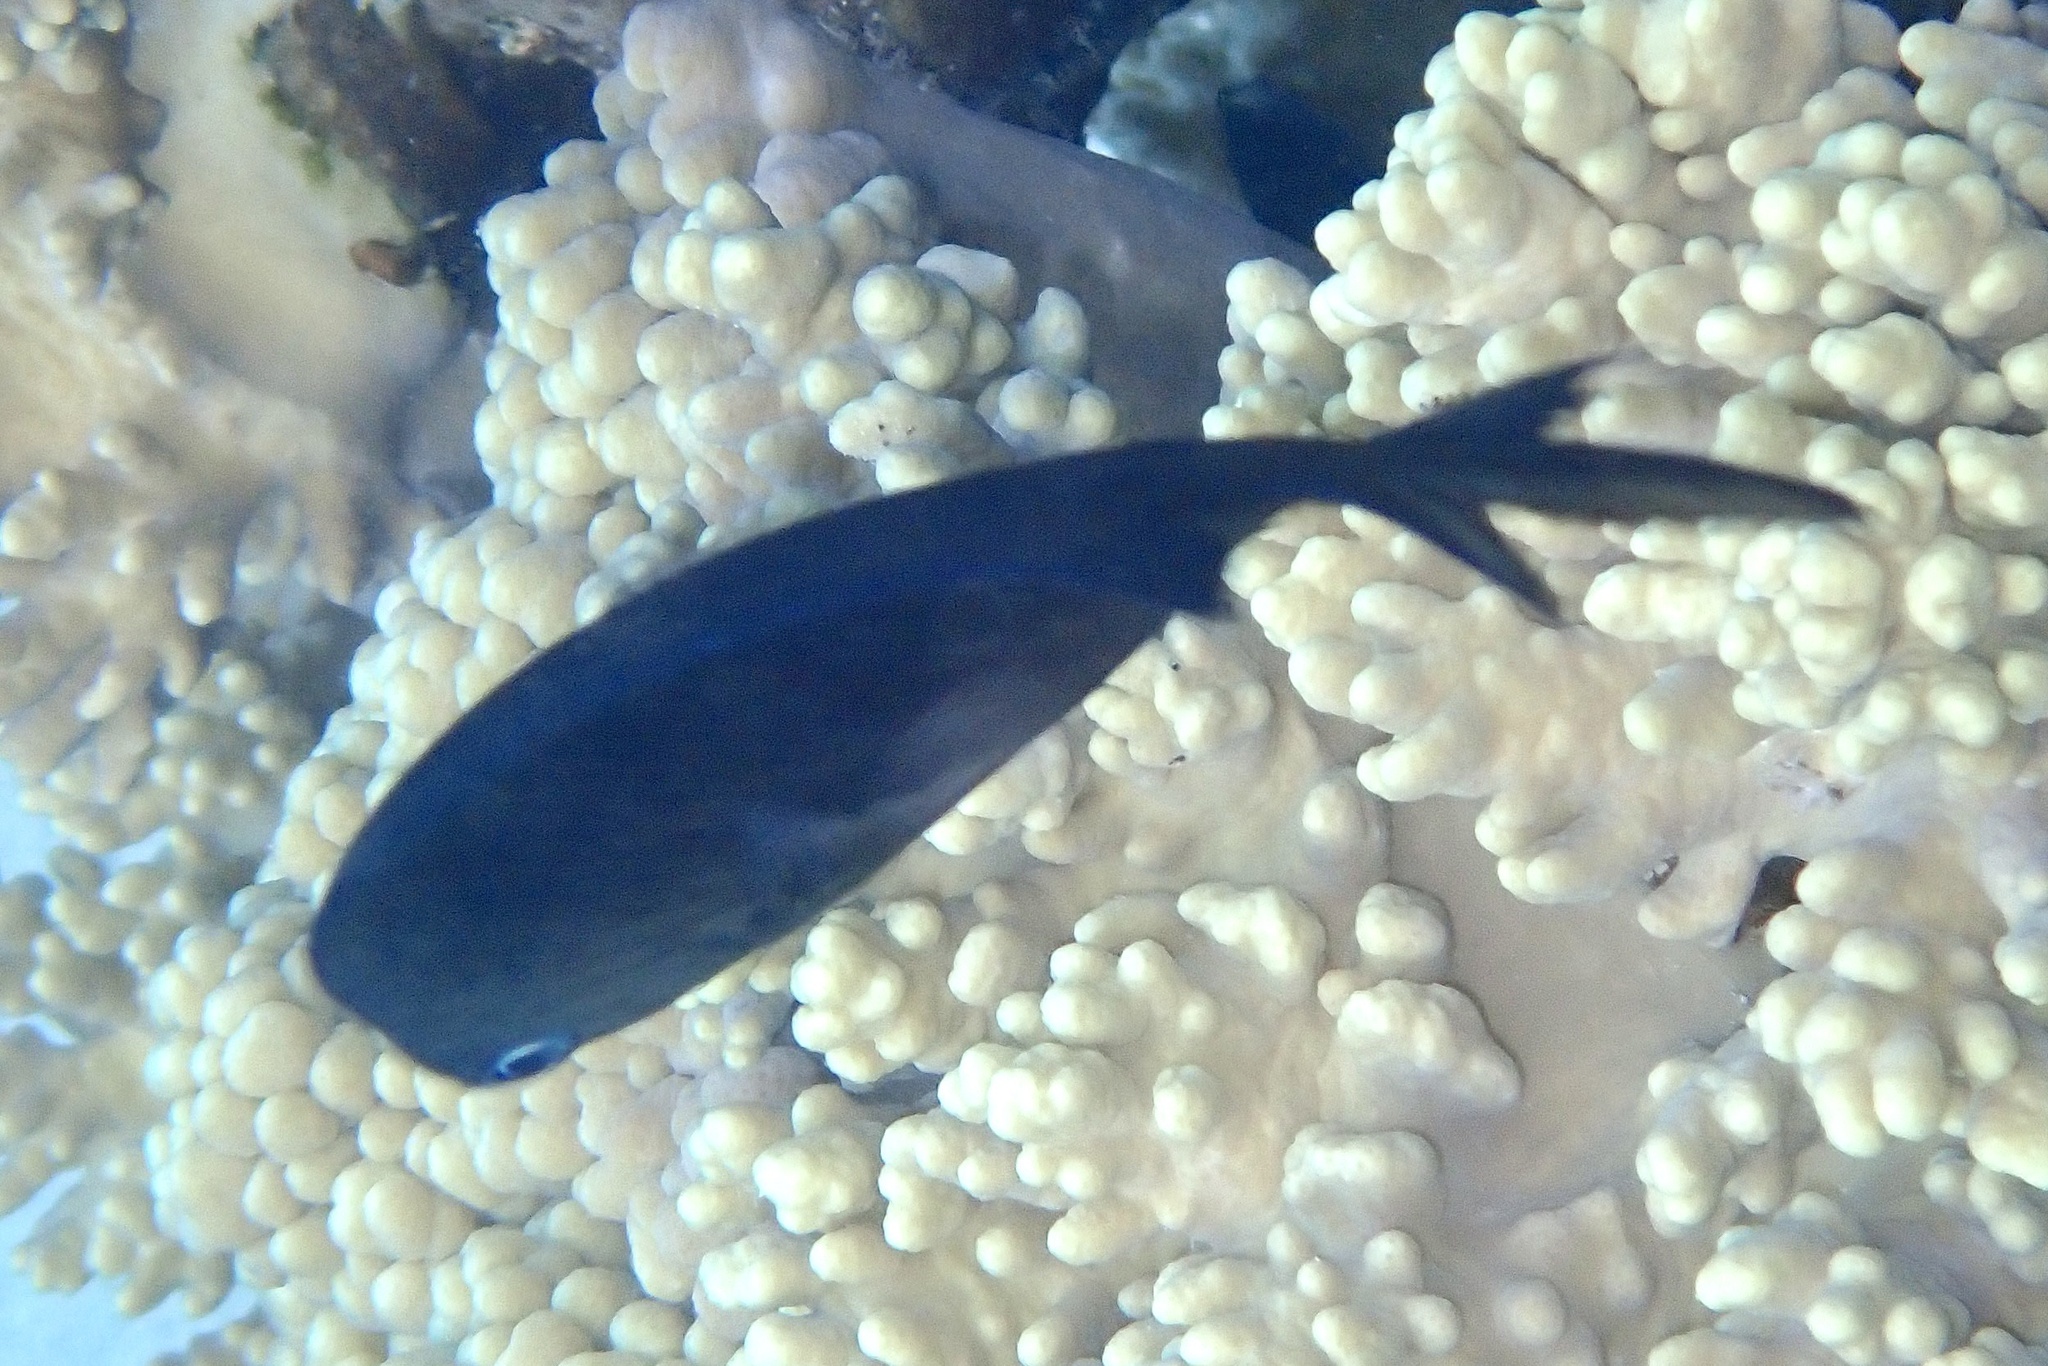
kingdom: Animalia
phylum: Chordata
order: Perciformes
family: Pomacentridae
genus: Acanthochromis
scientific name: Acanthochromis polyacanthus
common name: Spiny chromis
